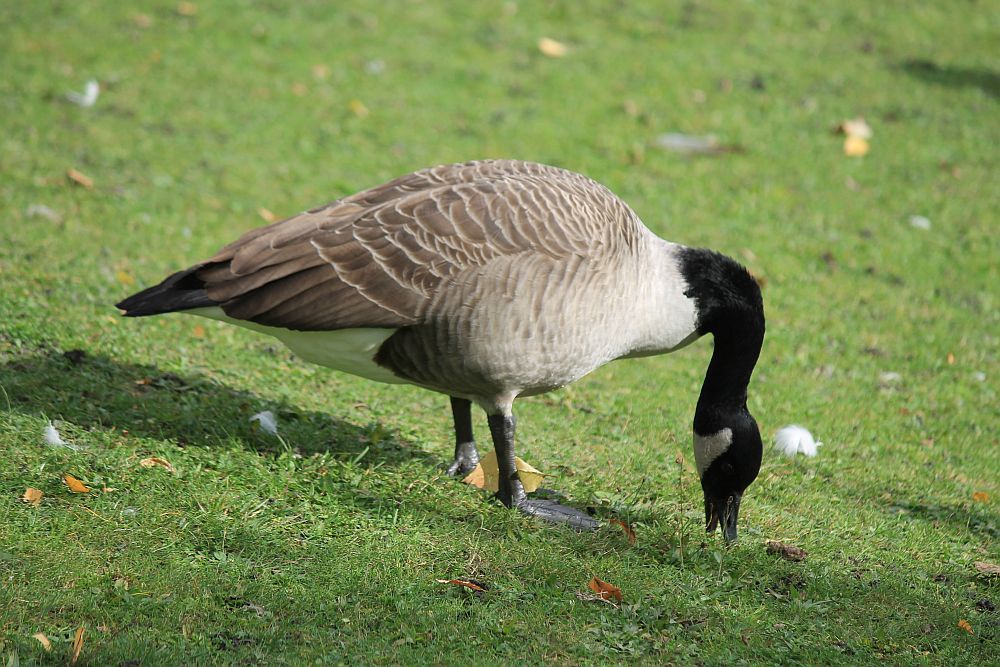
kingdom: Animalia
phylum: Chordata
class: Aves
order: Anseriformes
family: Anatidae
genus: Branta
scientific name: Branta canadensis
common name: Canada goose
